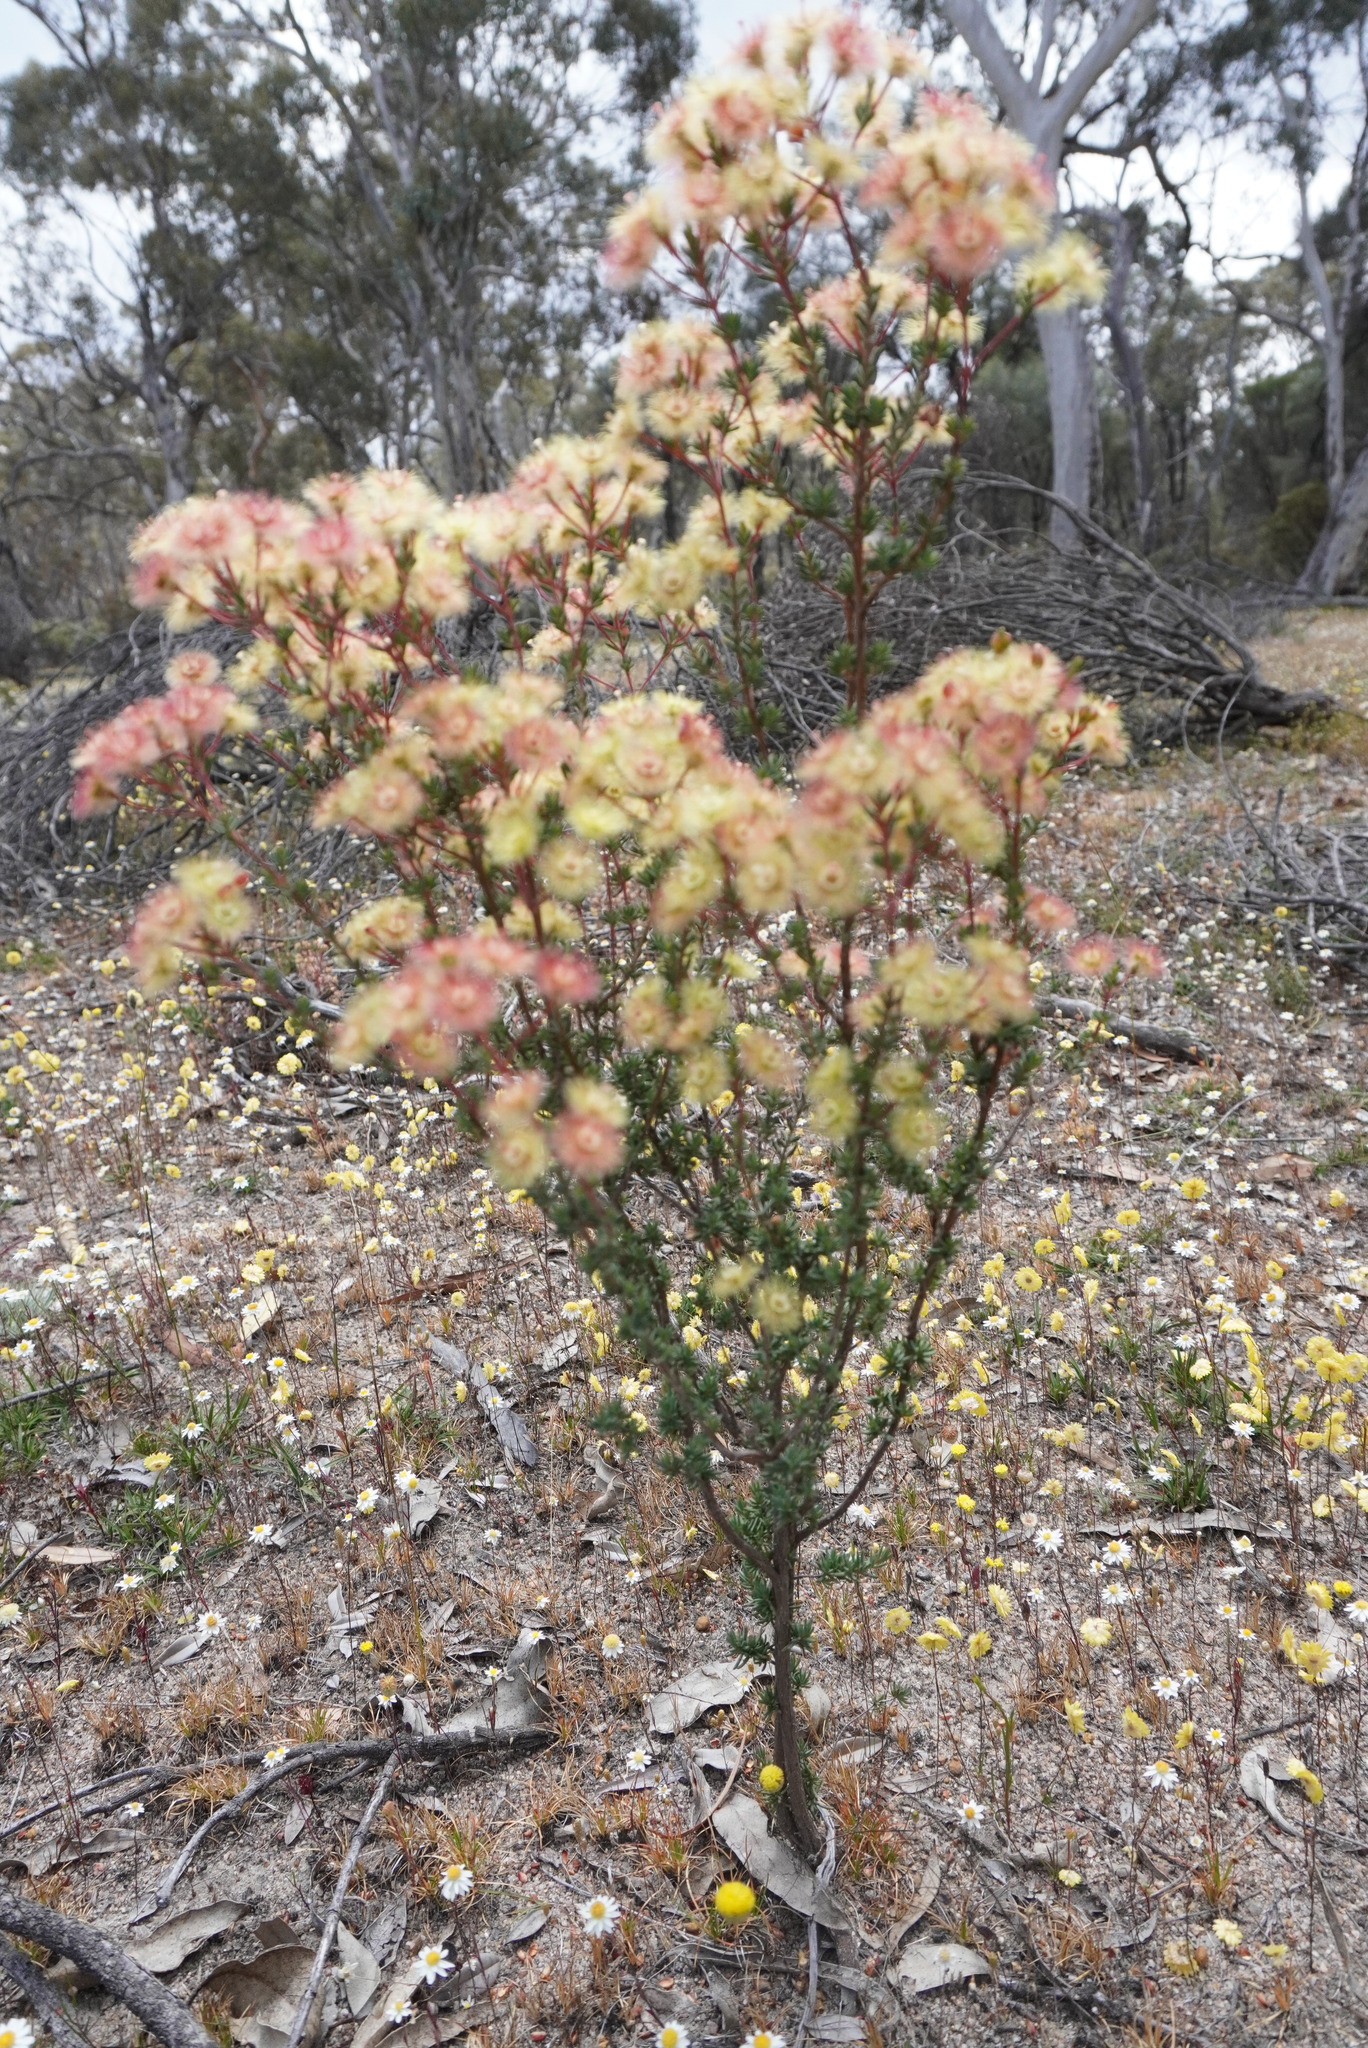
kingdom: Plantae
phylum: Tracheophyta
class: Magnoliopsida
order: Myrtales
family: Myrtaceae
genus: Verticordia
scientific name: Verticordia huegelii
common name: Variegate feather-flower
